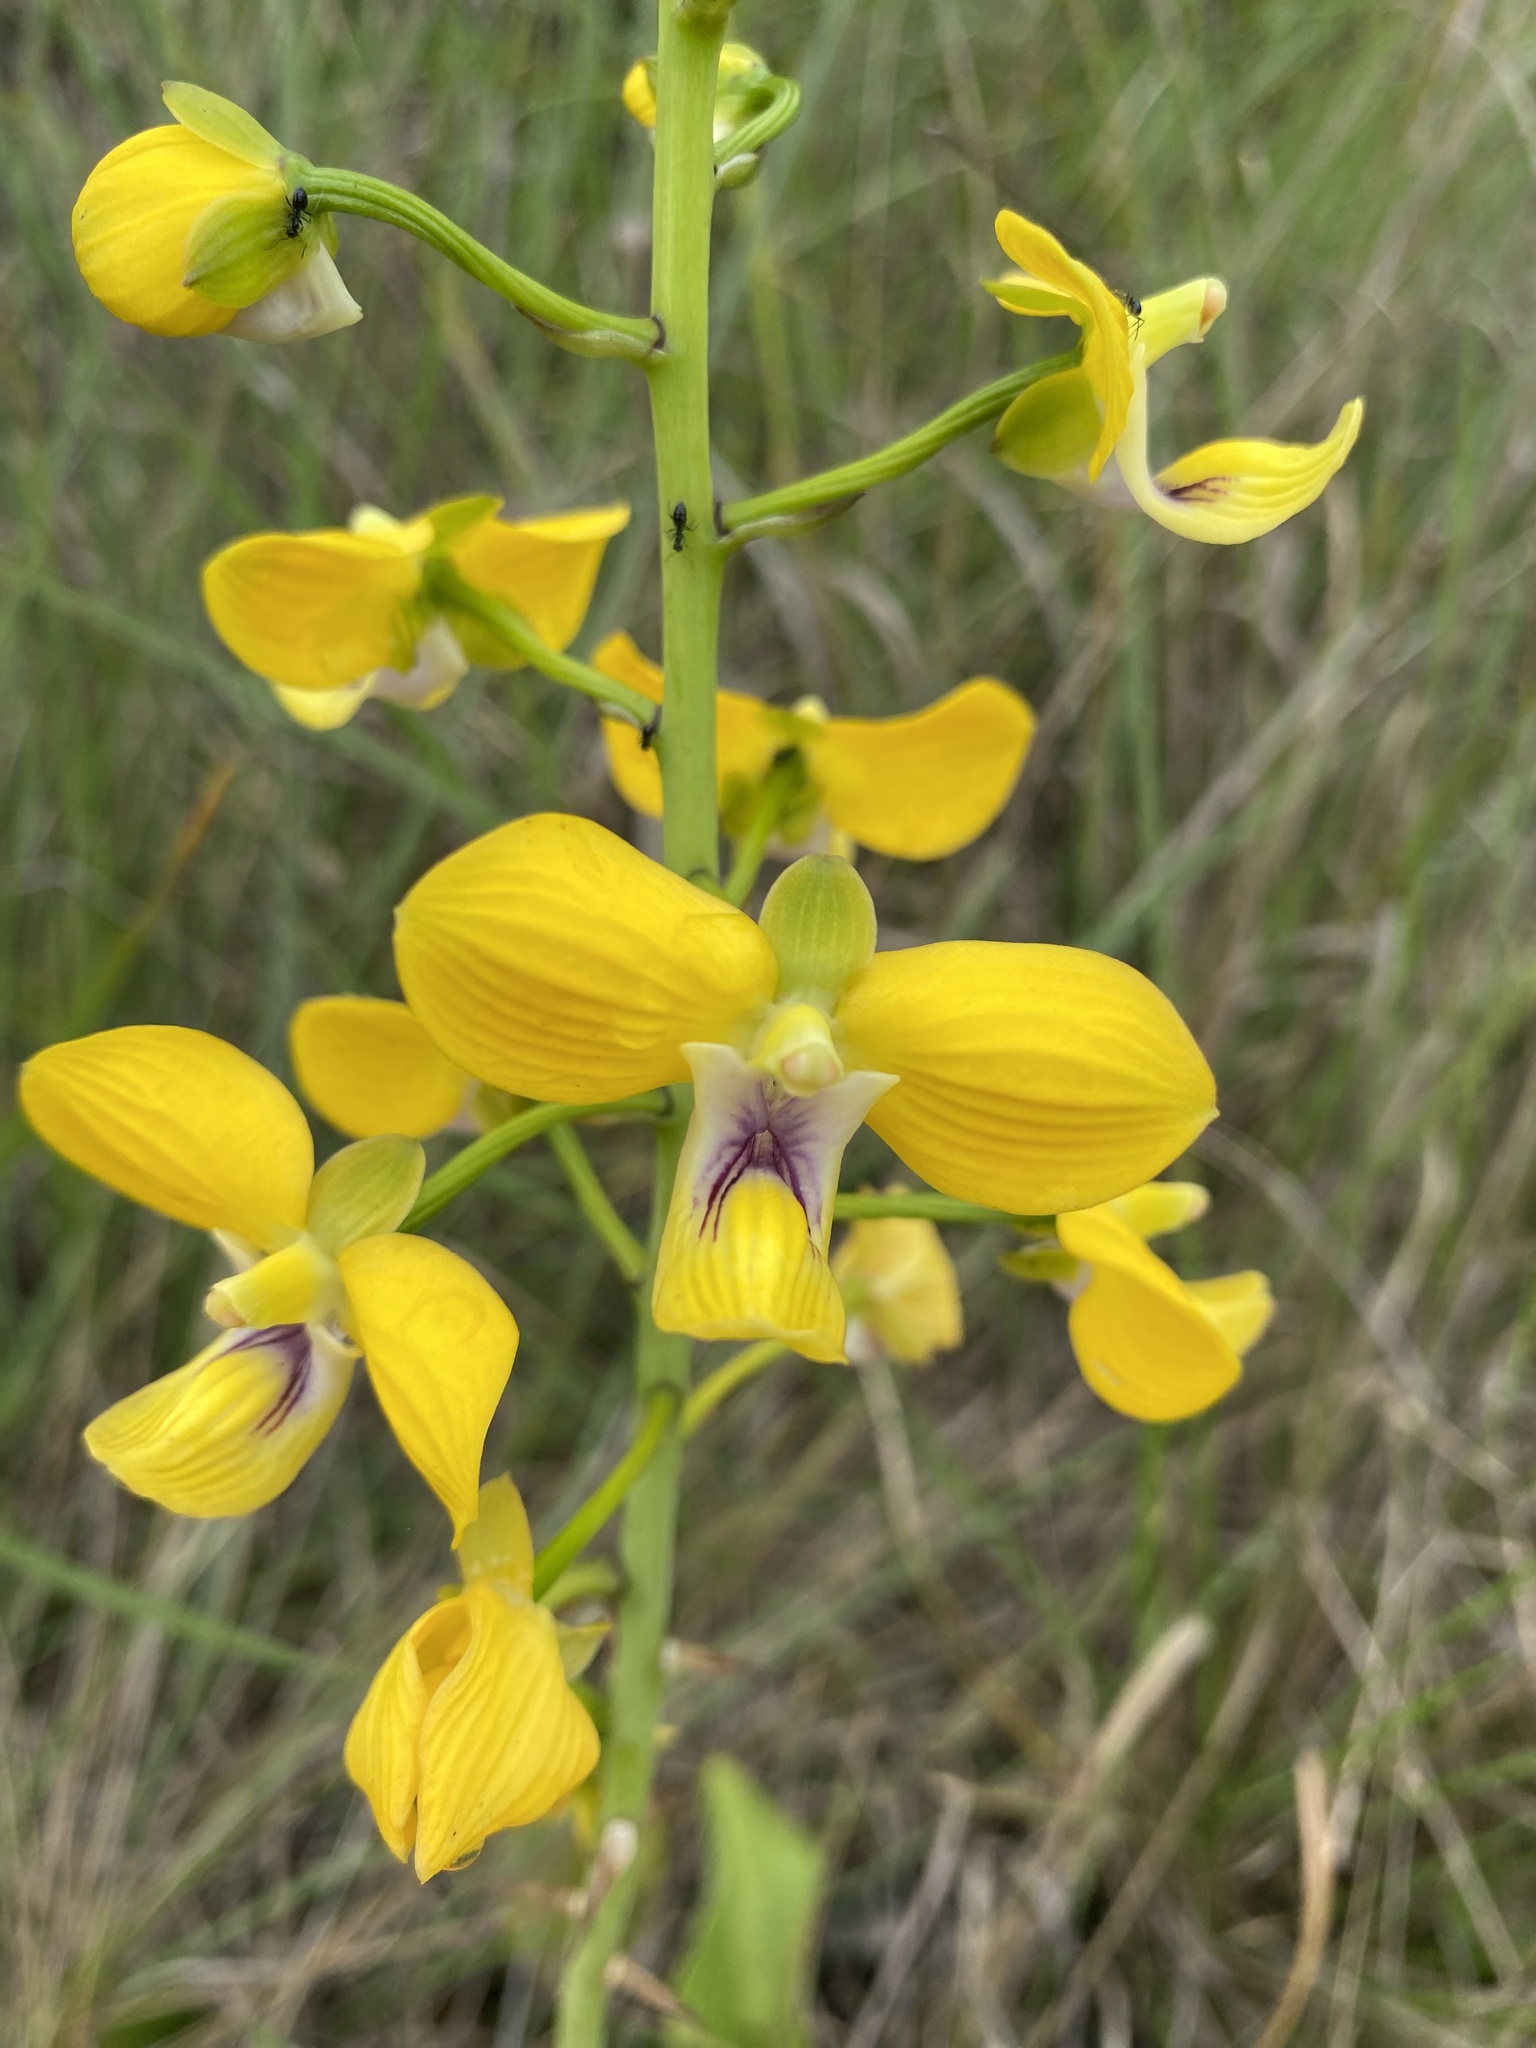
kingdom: Plantae
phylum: Tracheophyta
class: Liliopsida
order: Asparagales
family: Orchidaceae
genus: Eulophia
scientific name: Eulophia speciosa
